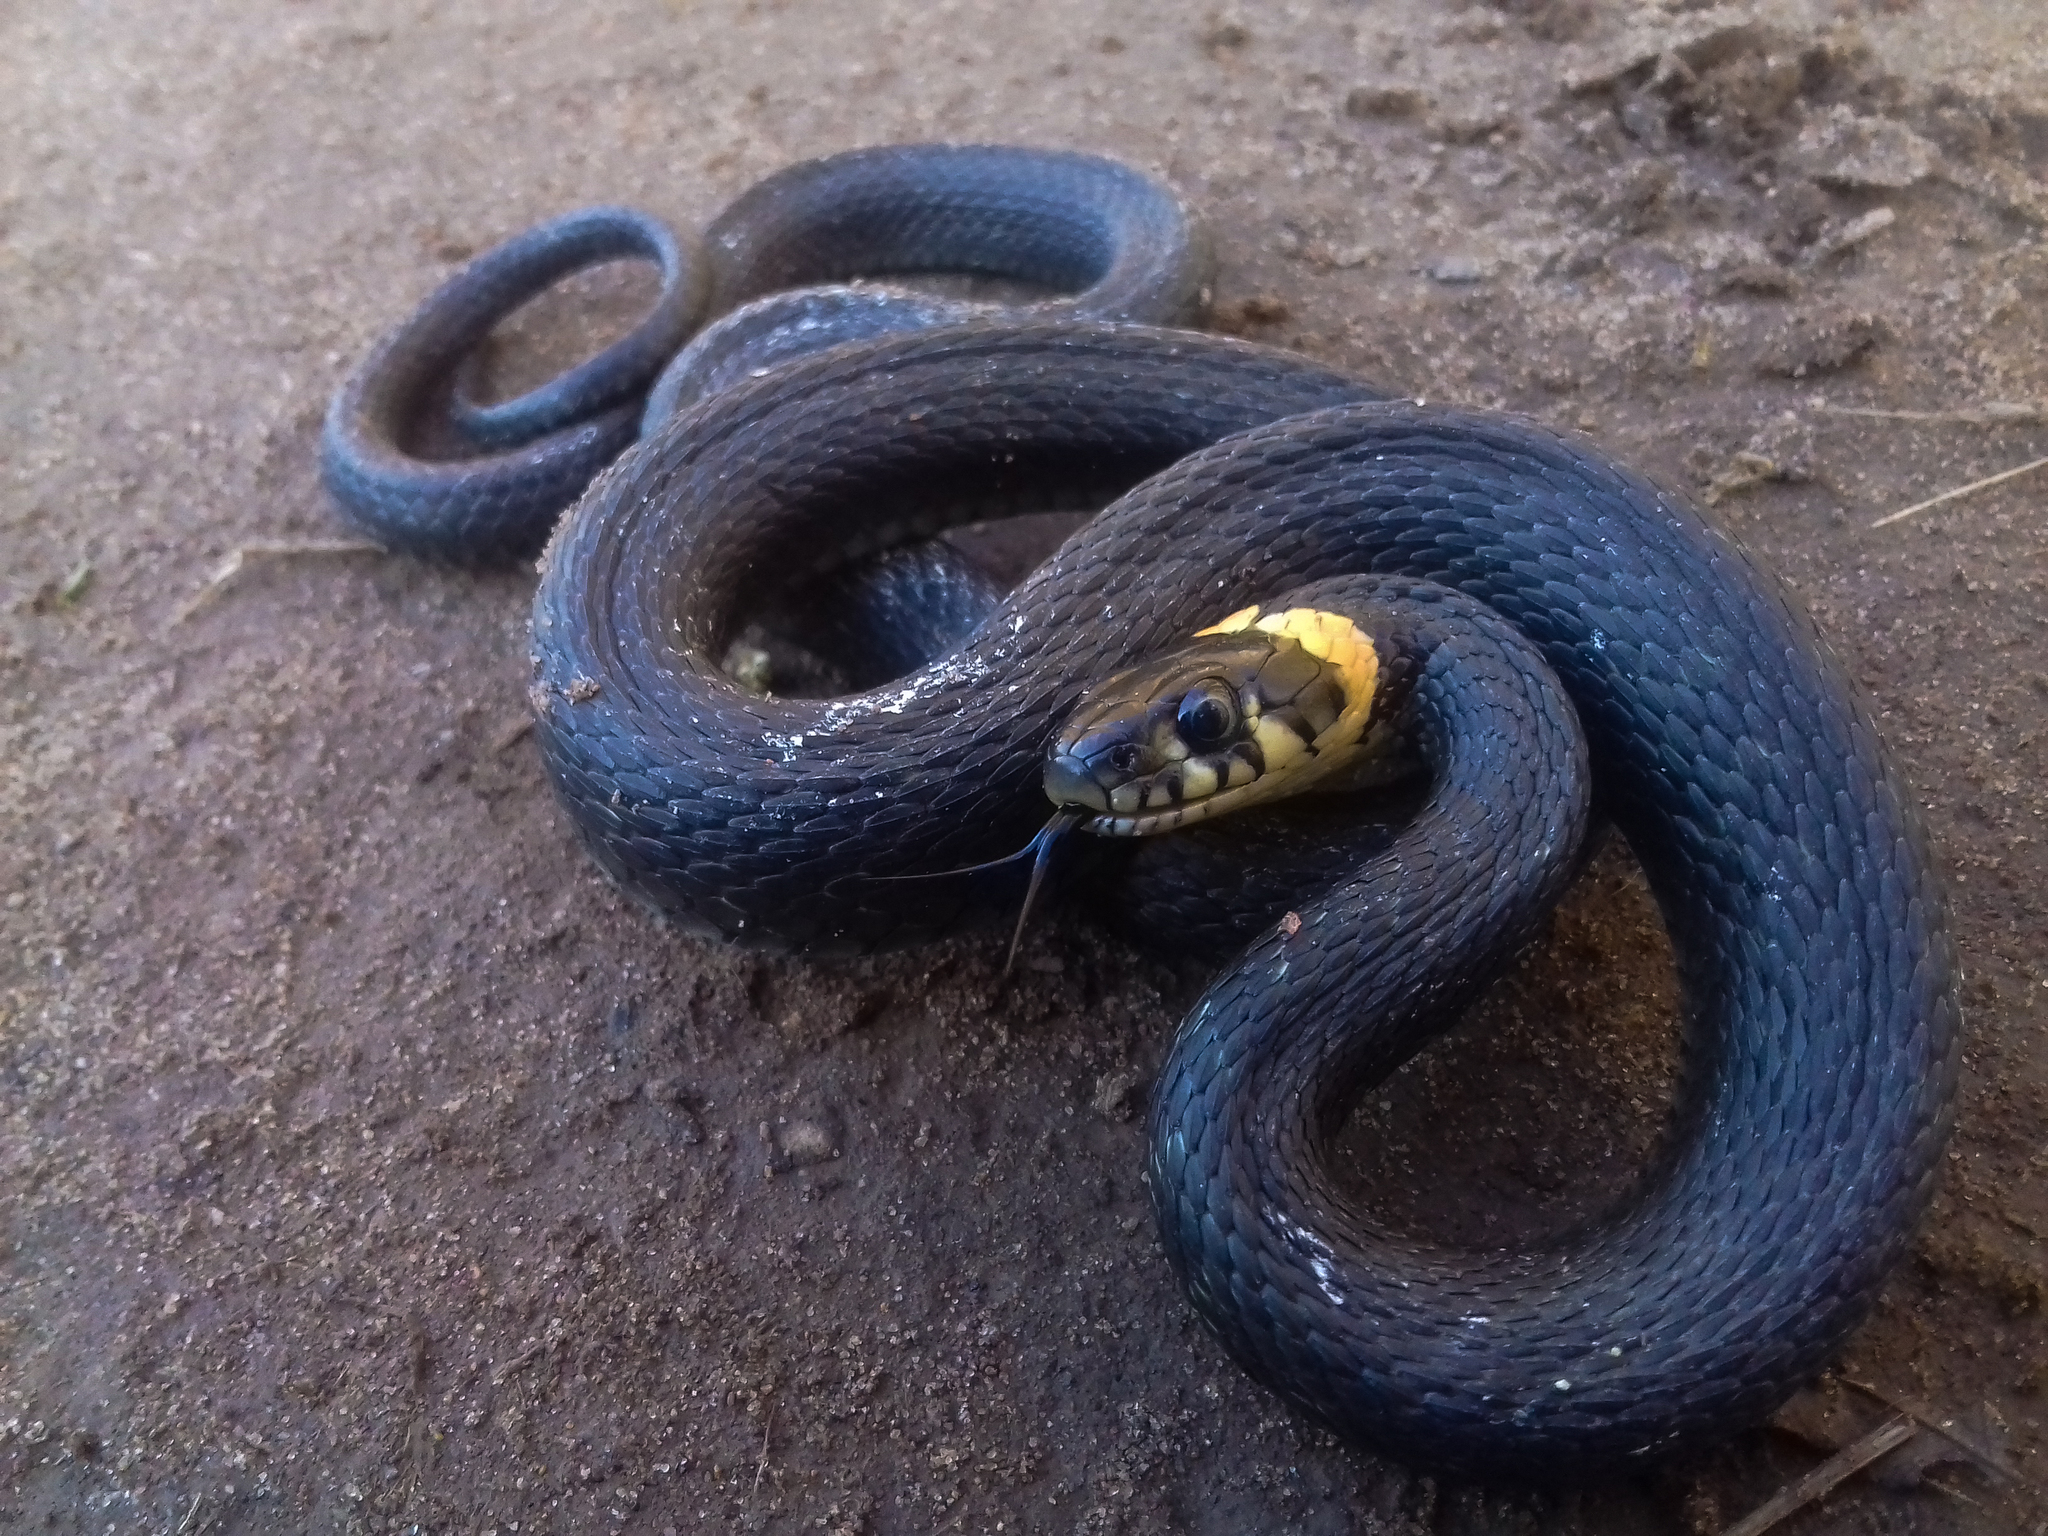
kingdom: Animalia
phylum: Chordata
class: Squamata
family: Colubridae
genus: Natrix
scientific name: Natrix natrix
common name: Grass snake
